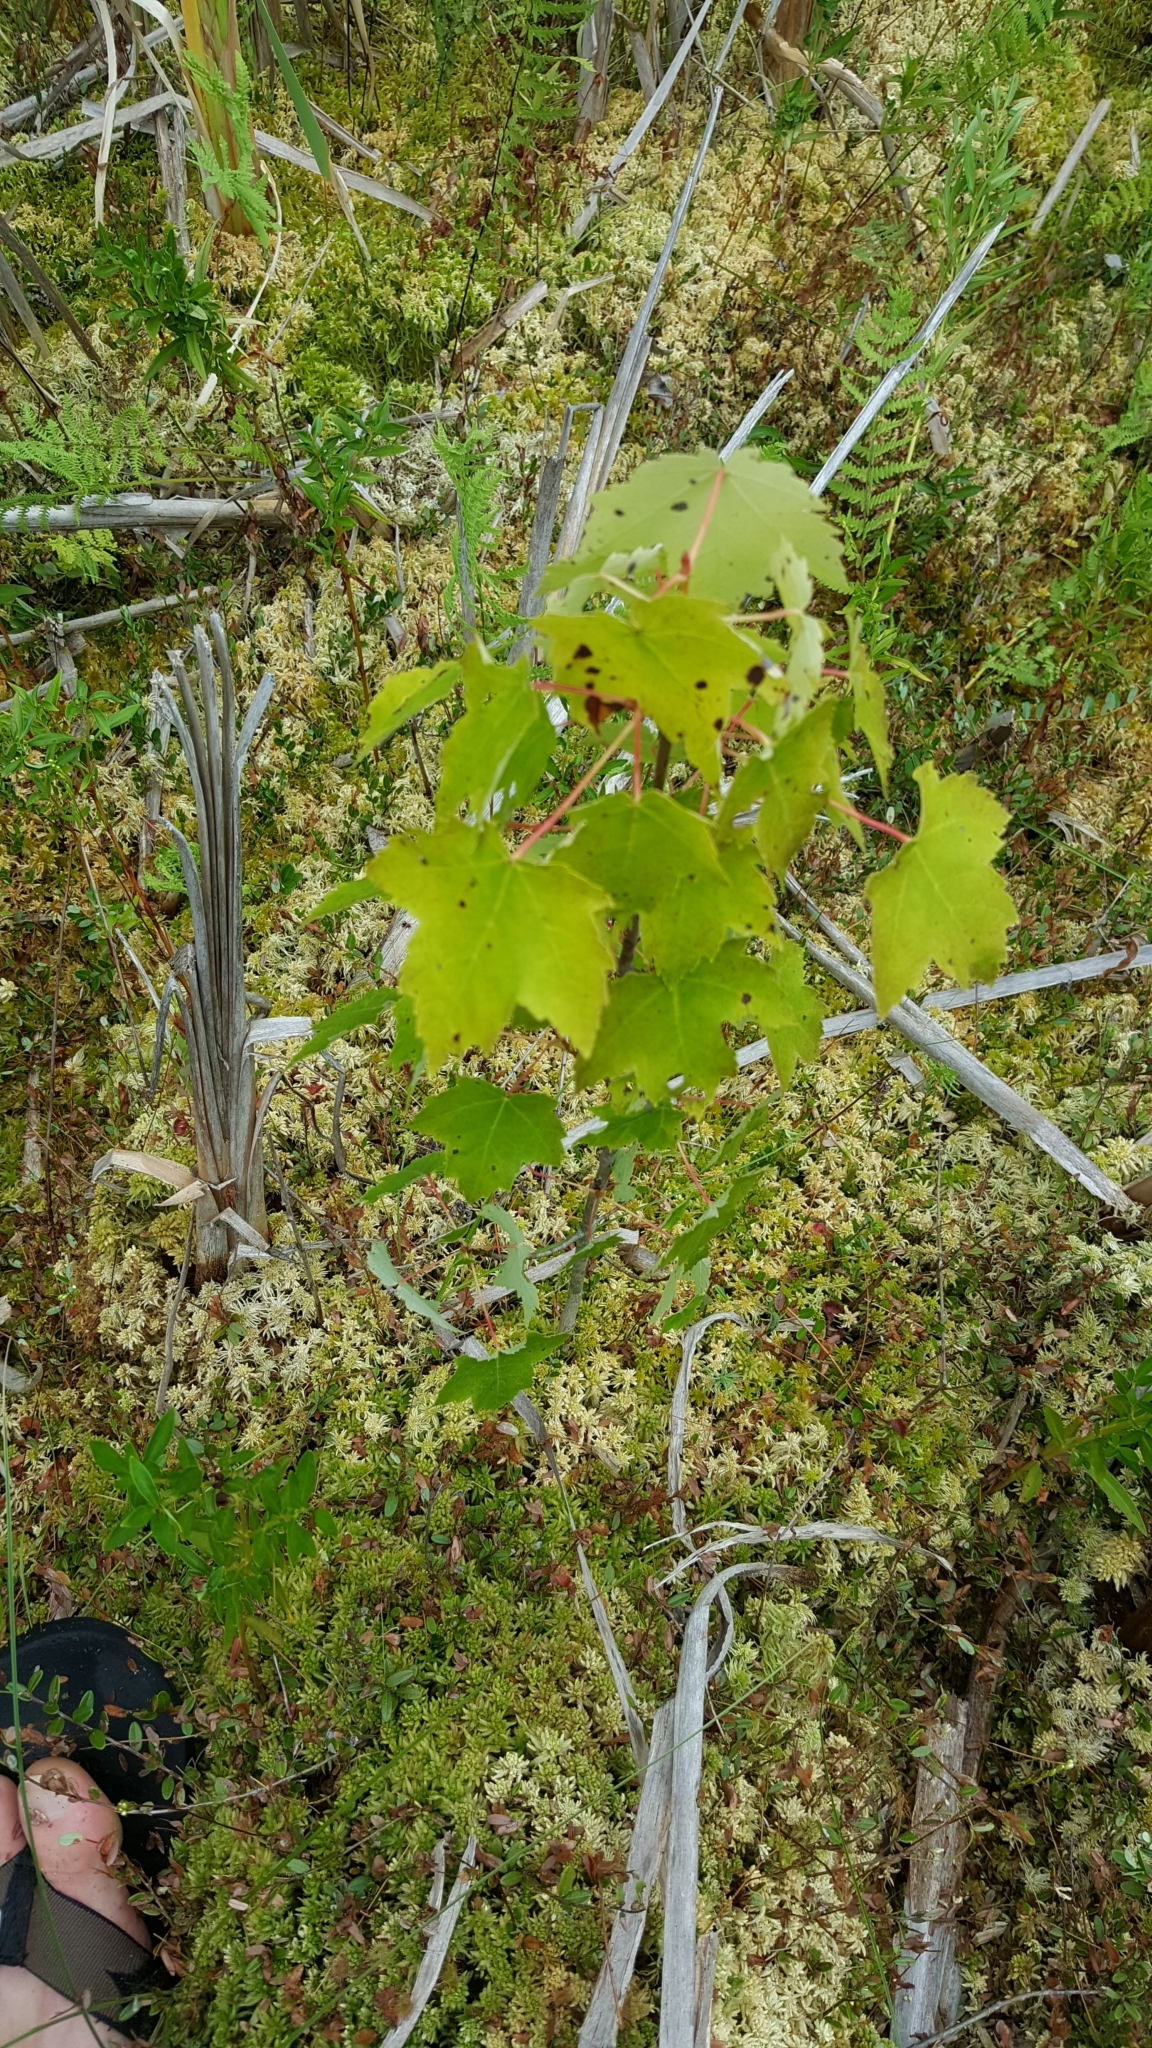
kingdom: Plantae
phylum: Tracheophyta
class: Magnoliopsida
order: Sapindales
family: Sapindaceae
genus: Acer
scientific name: Acer rubrum
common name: Red maple
